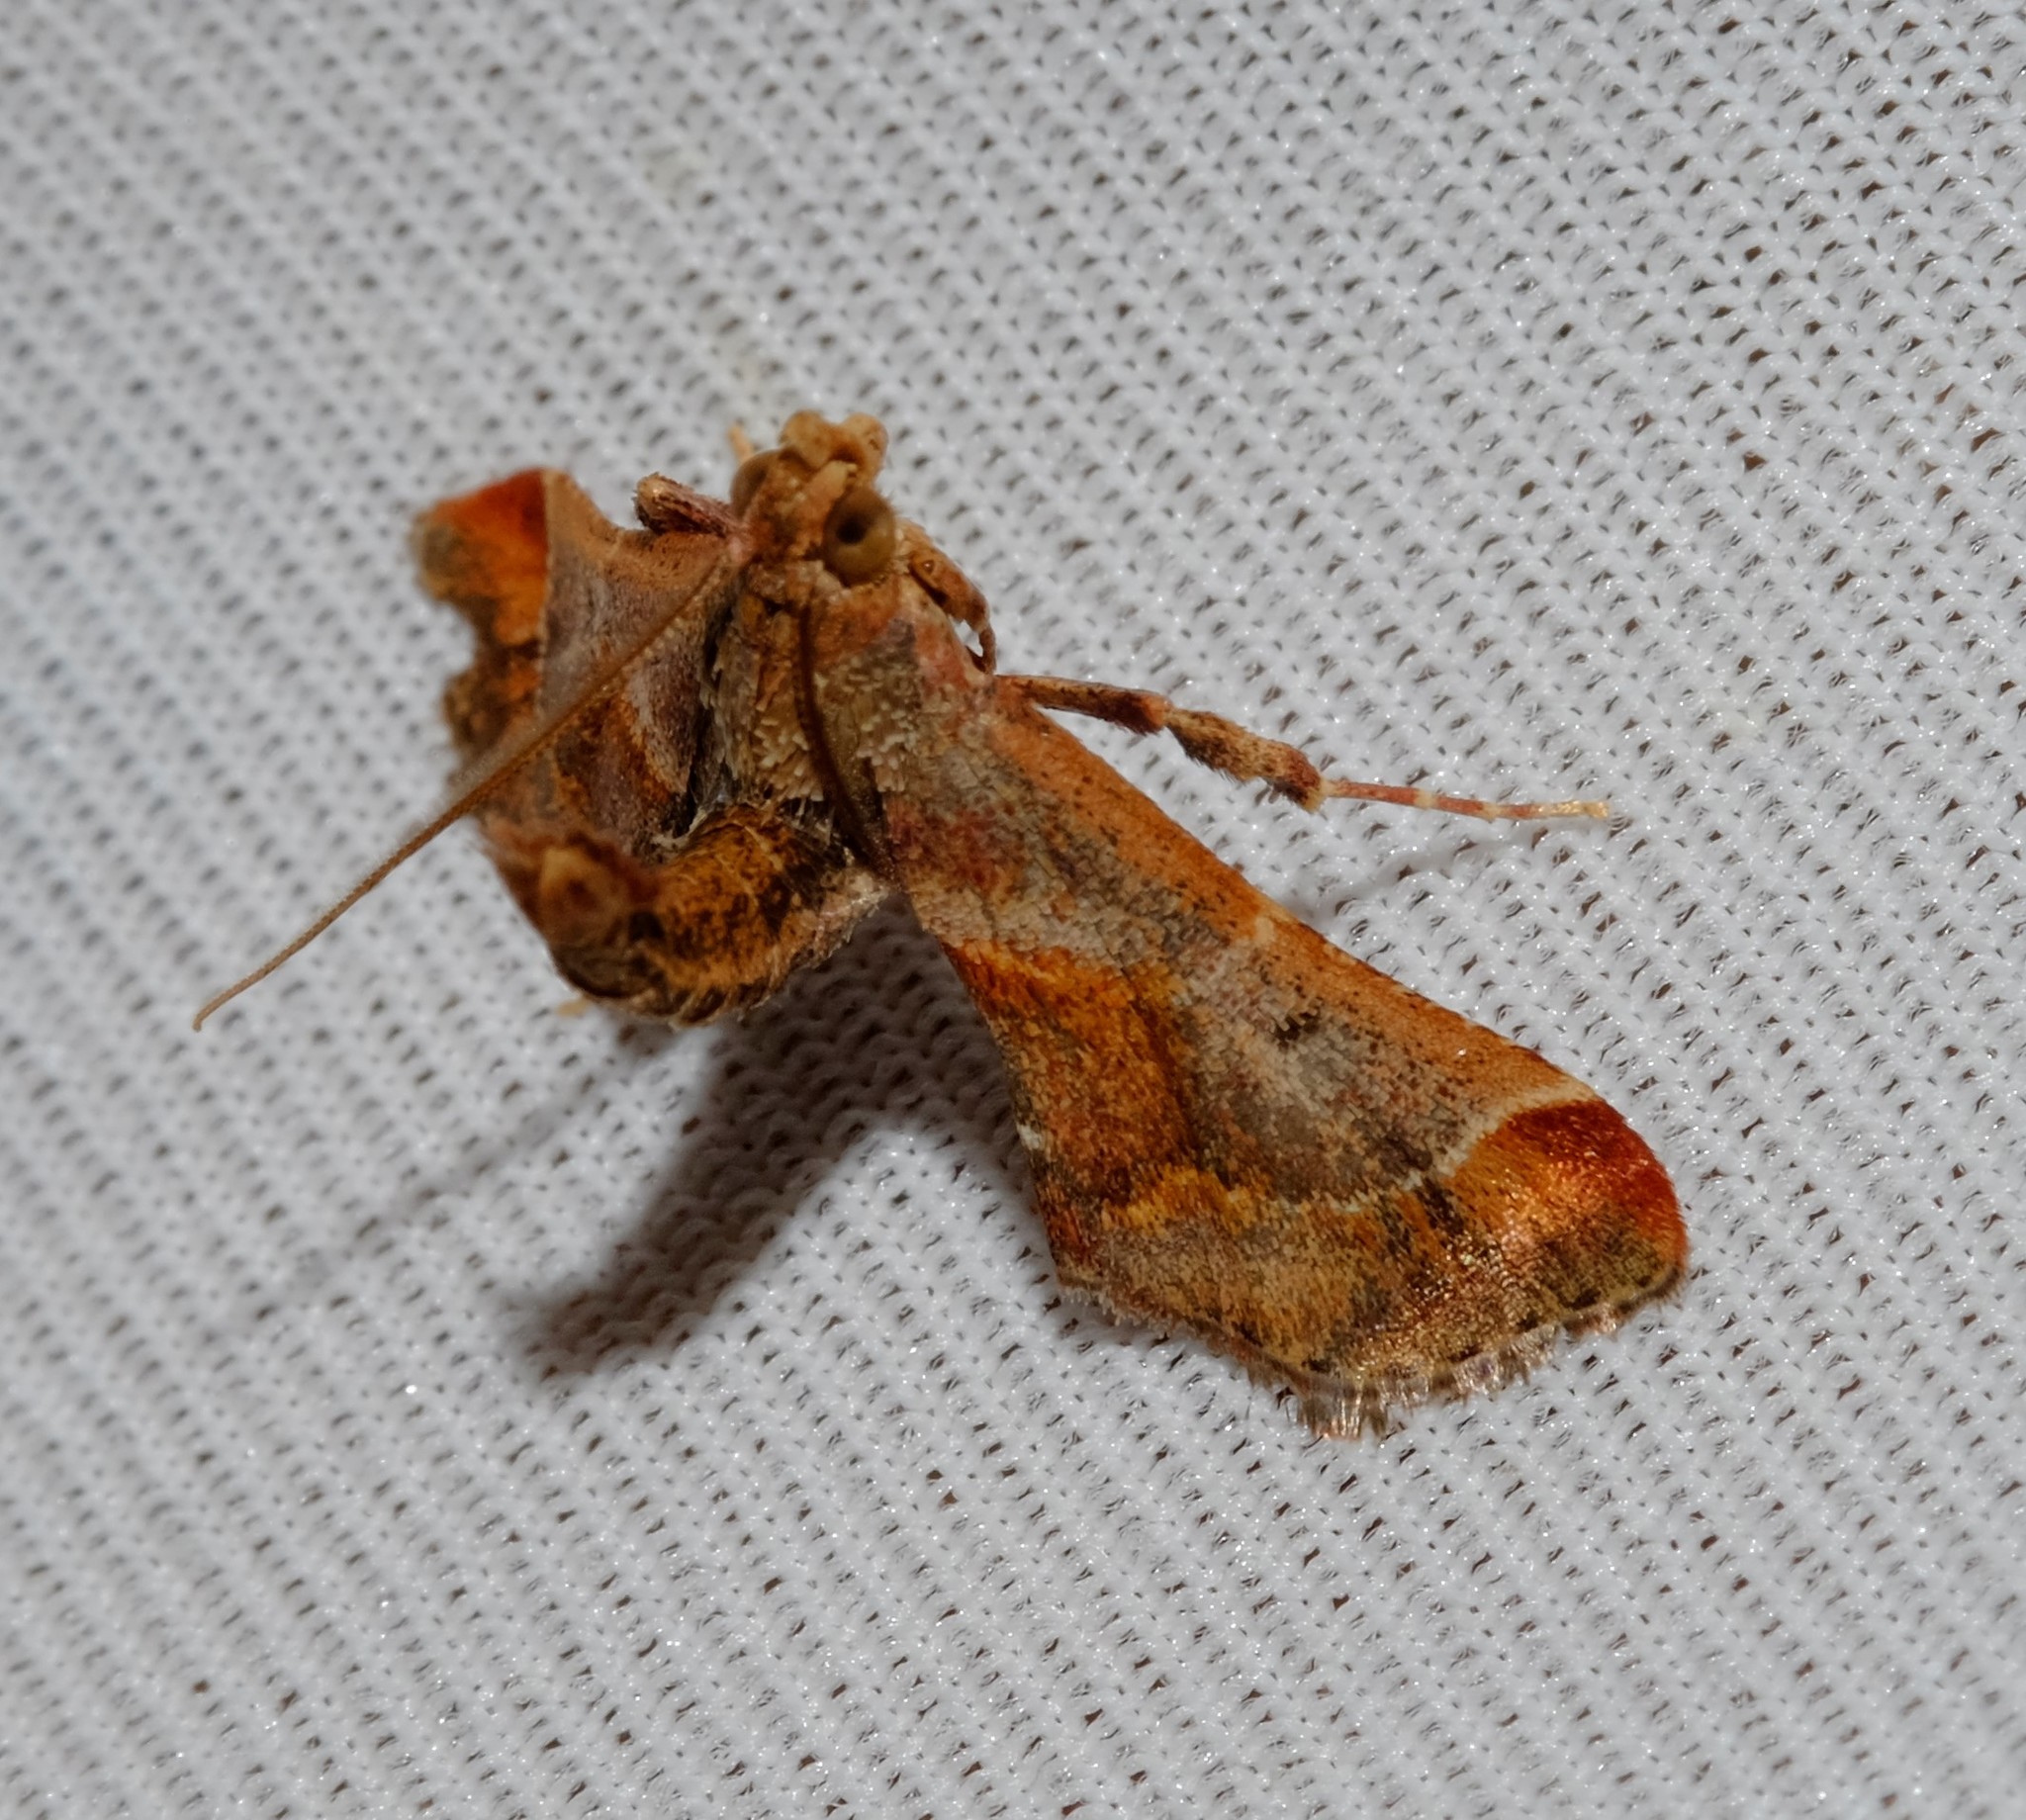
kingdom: Animalia
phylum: Arthropoda
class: Insecta
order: Lepidoptera
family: Pyralidae
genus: Gauna
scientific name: Gauna aegusalis
